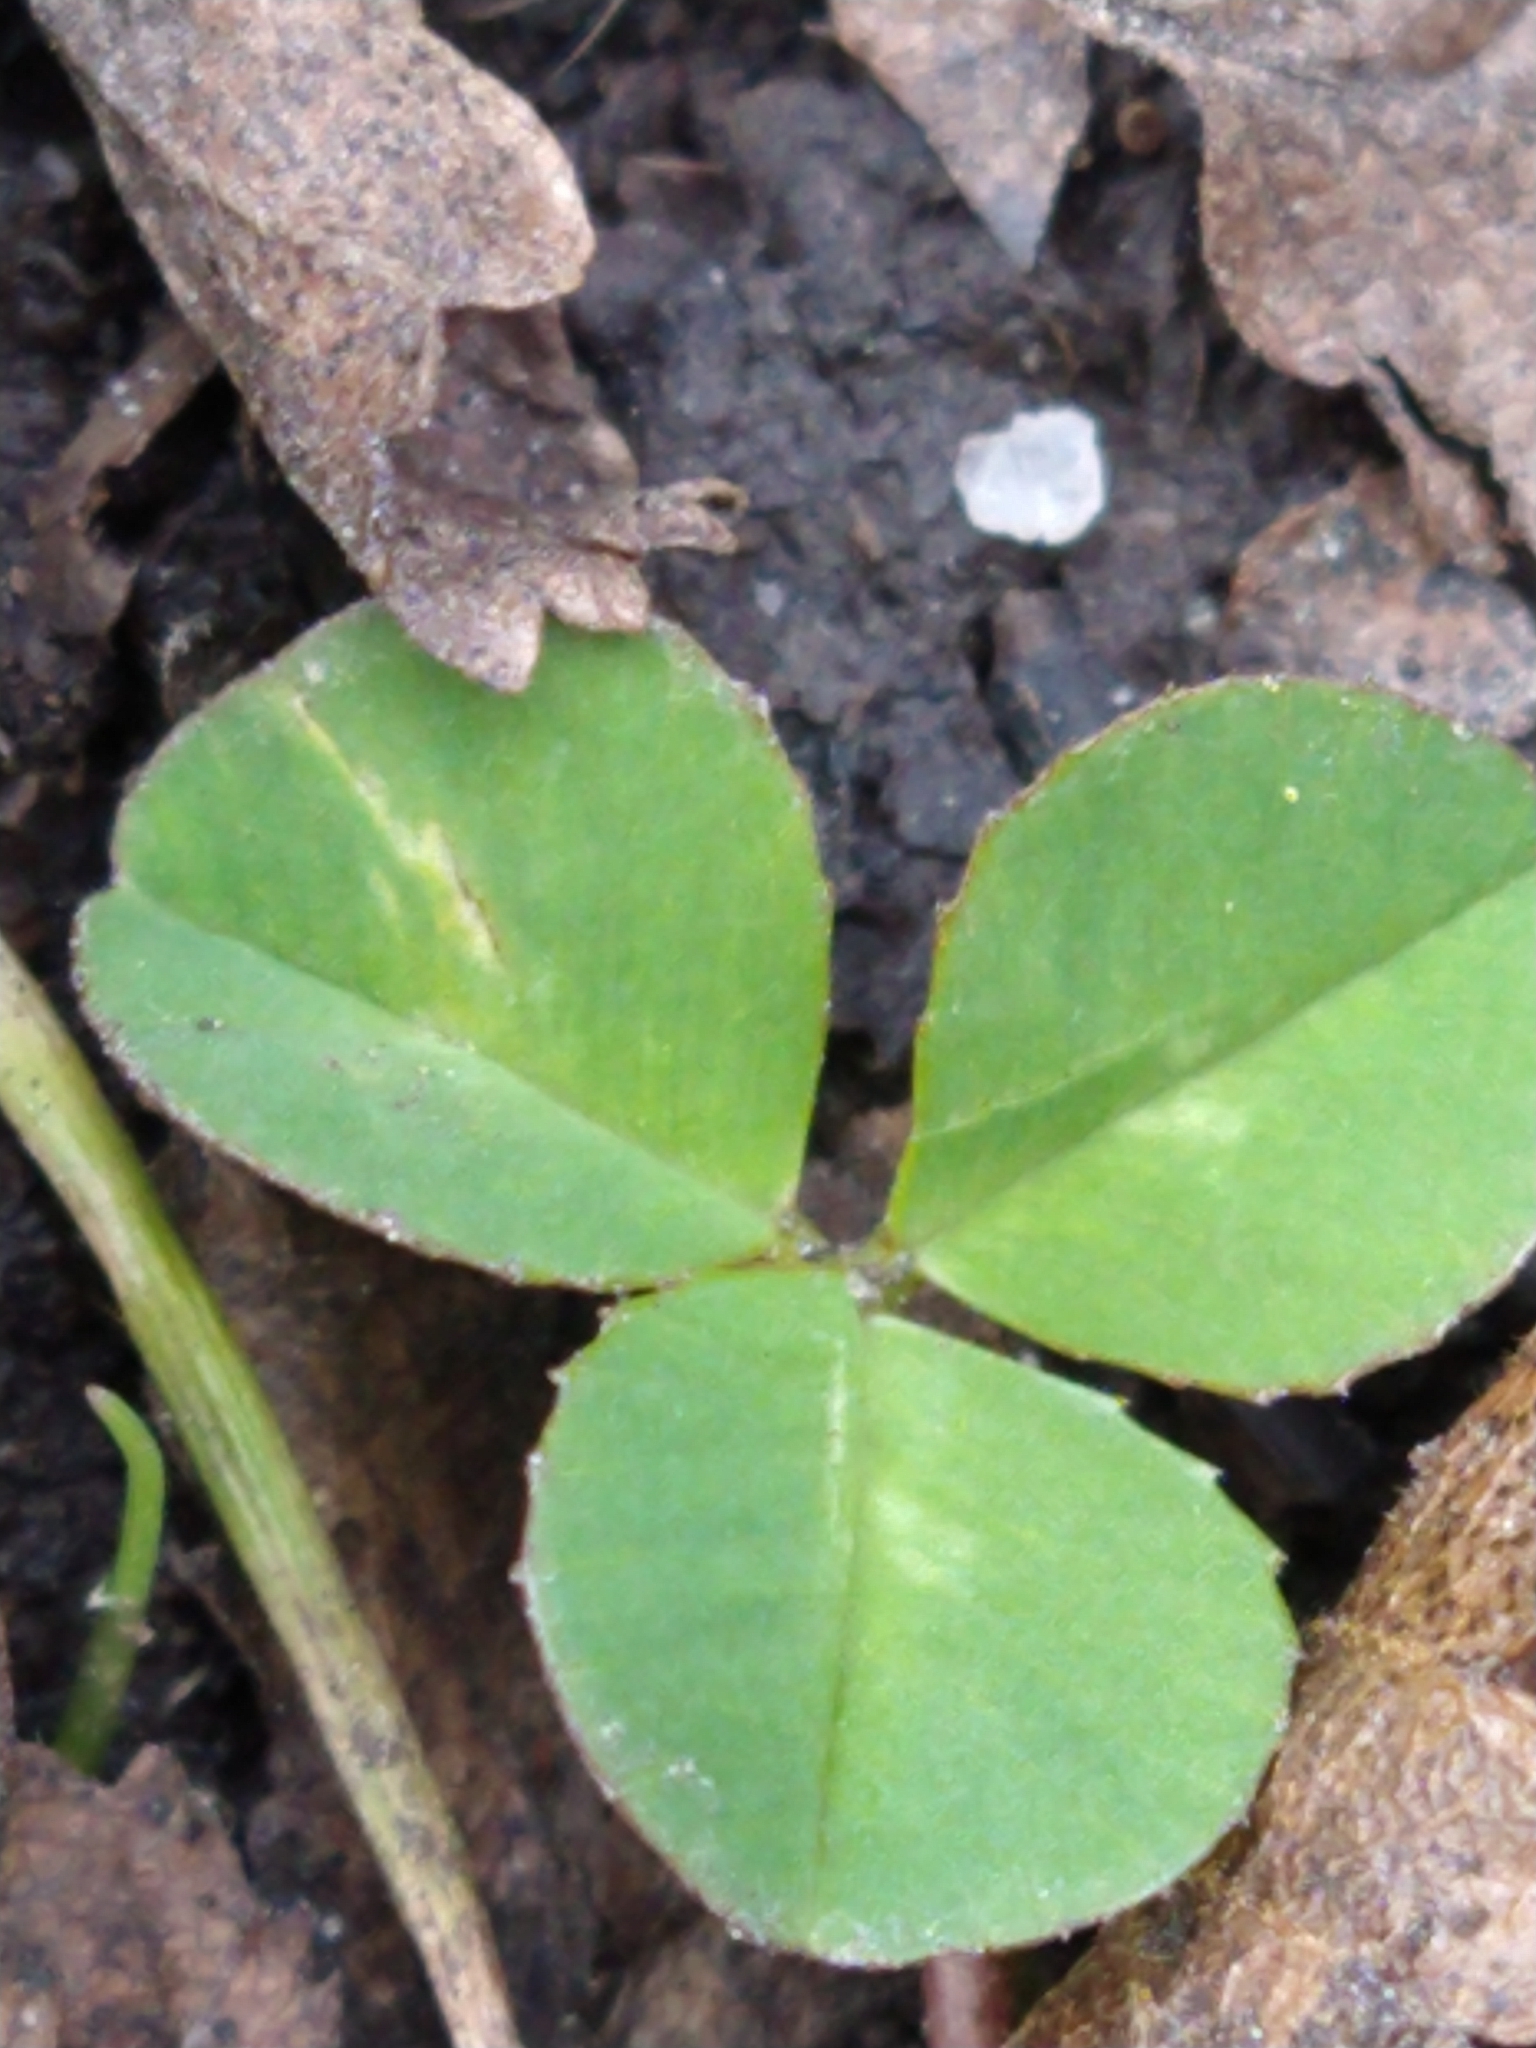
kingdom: Plantae
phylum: Tracheophyta
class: Magnoliopsida
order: Fabales
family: Fabaceae
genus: Trifolium
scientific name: Trifolium repens
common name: White clover
